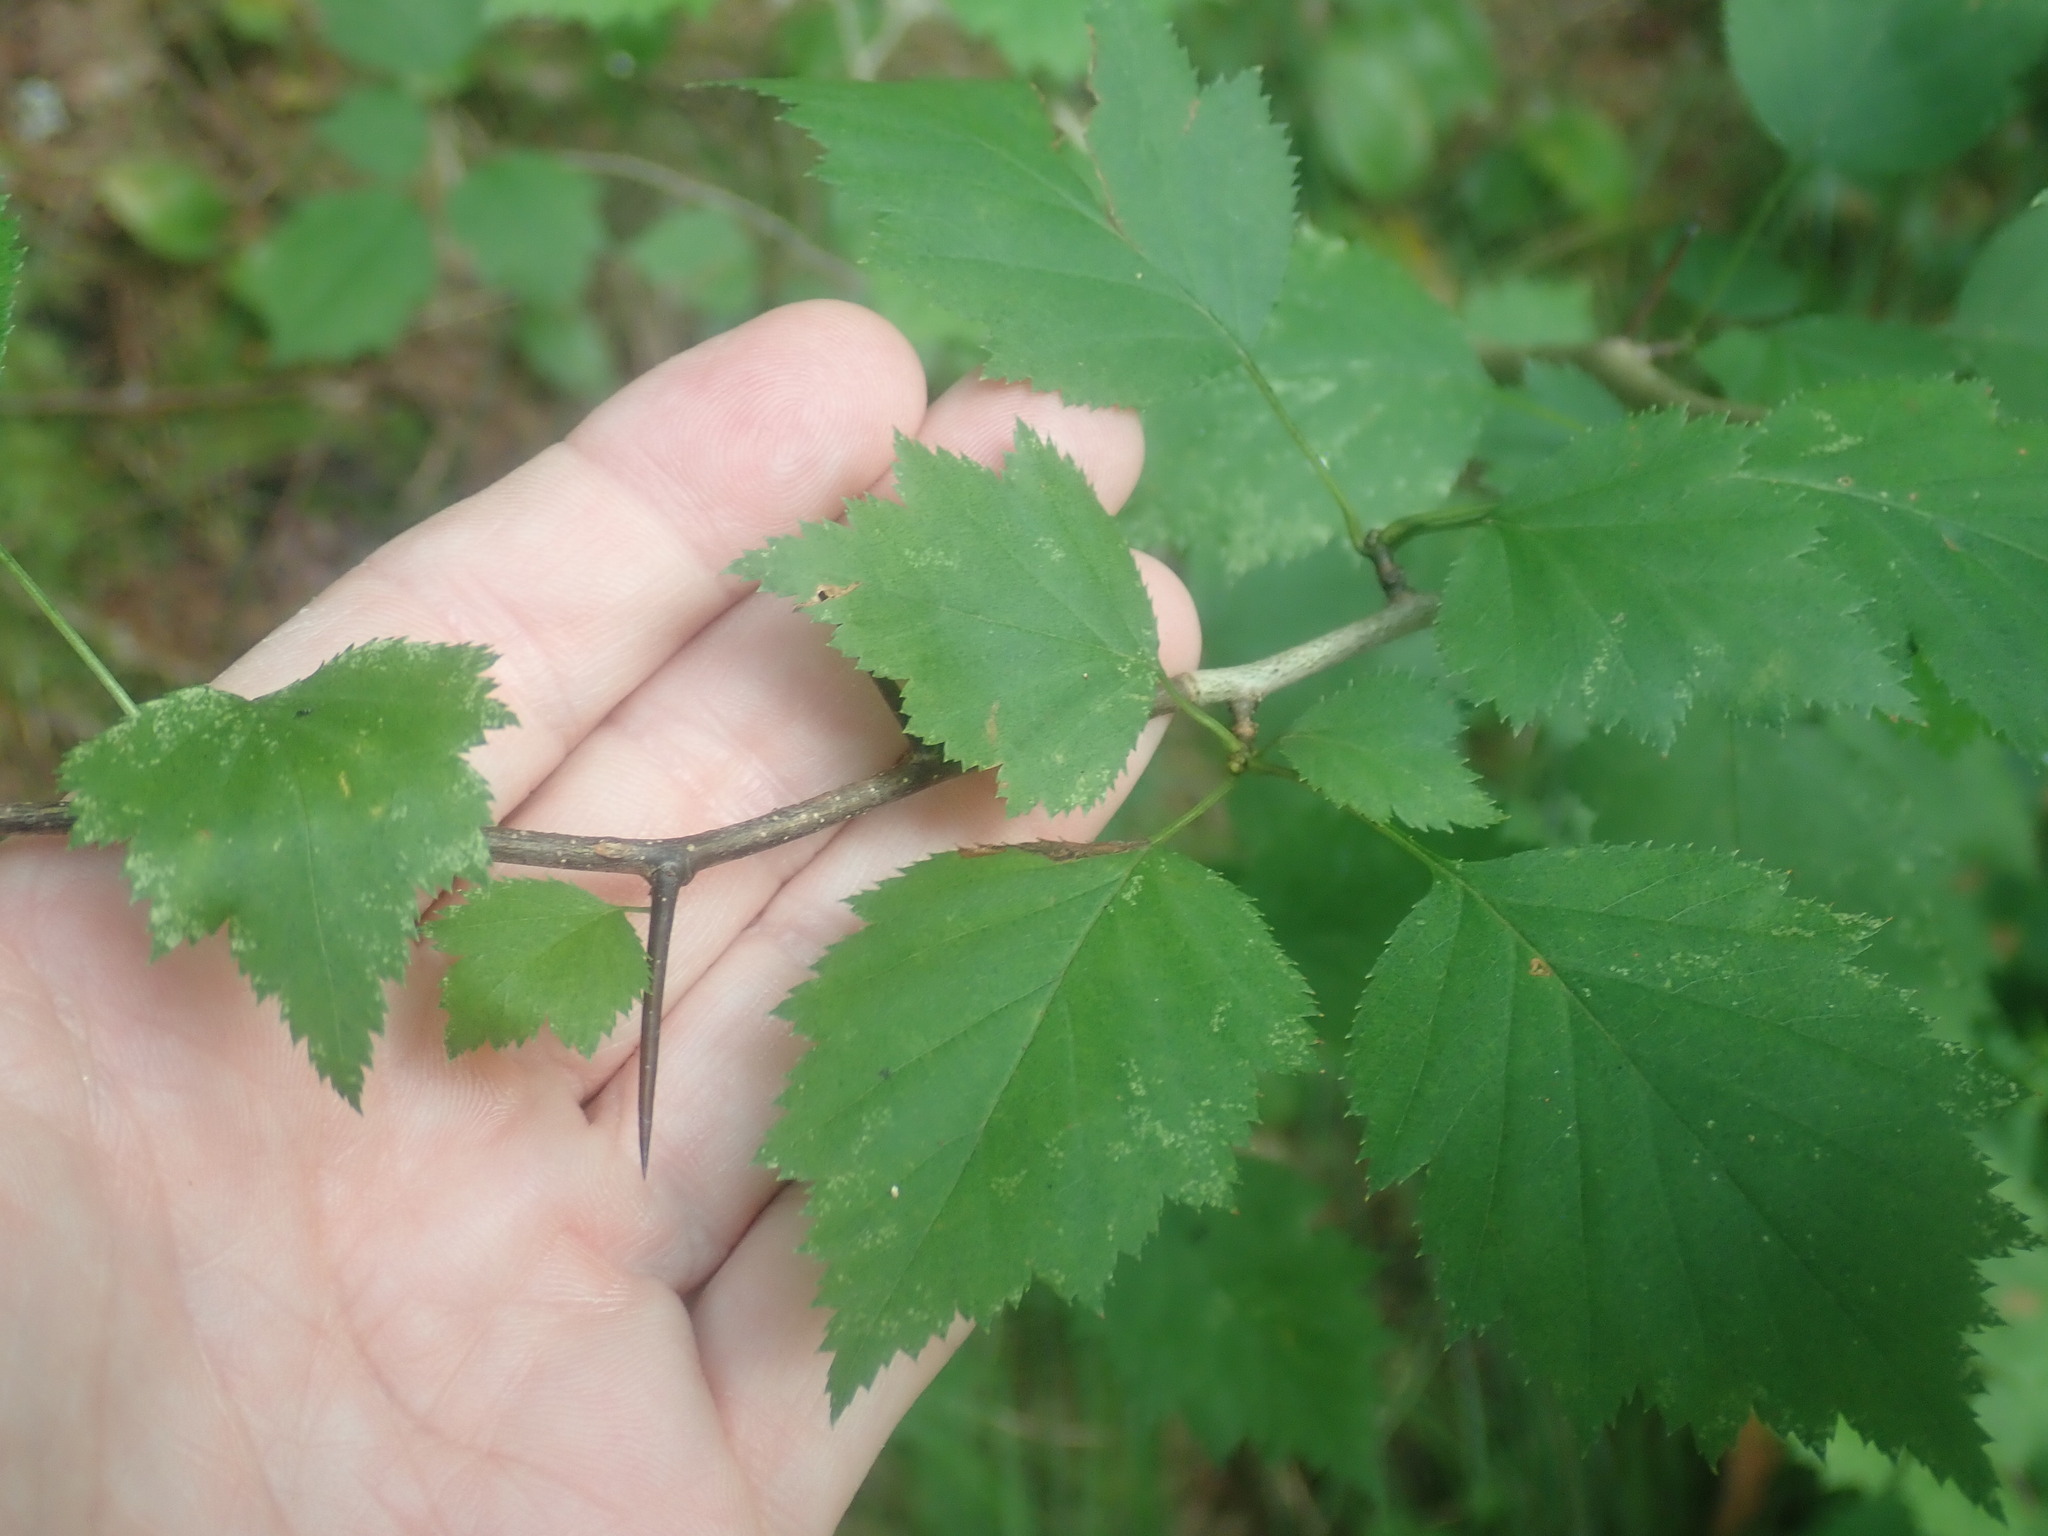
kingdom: Plantae
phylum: Tracheophyta
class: Magnoliopsida
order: Rosales
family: Rosaceae
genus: Crataegus
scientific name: Crataegus
